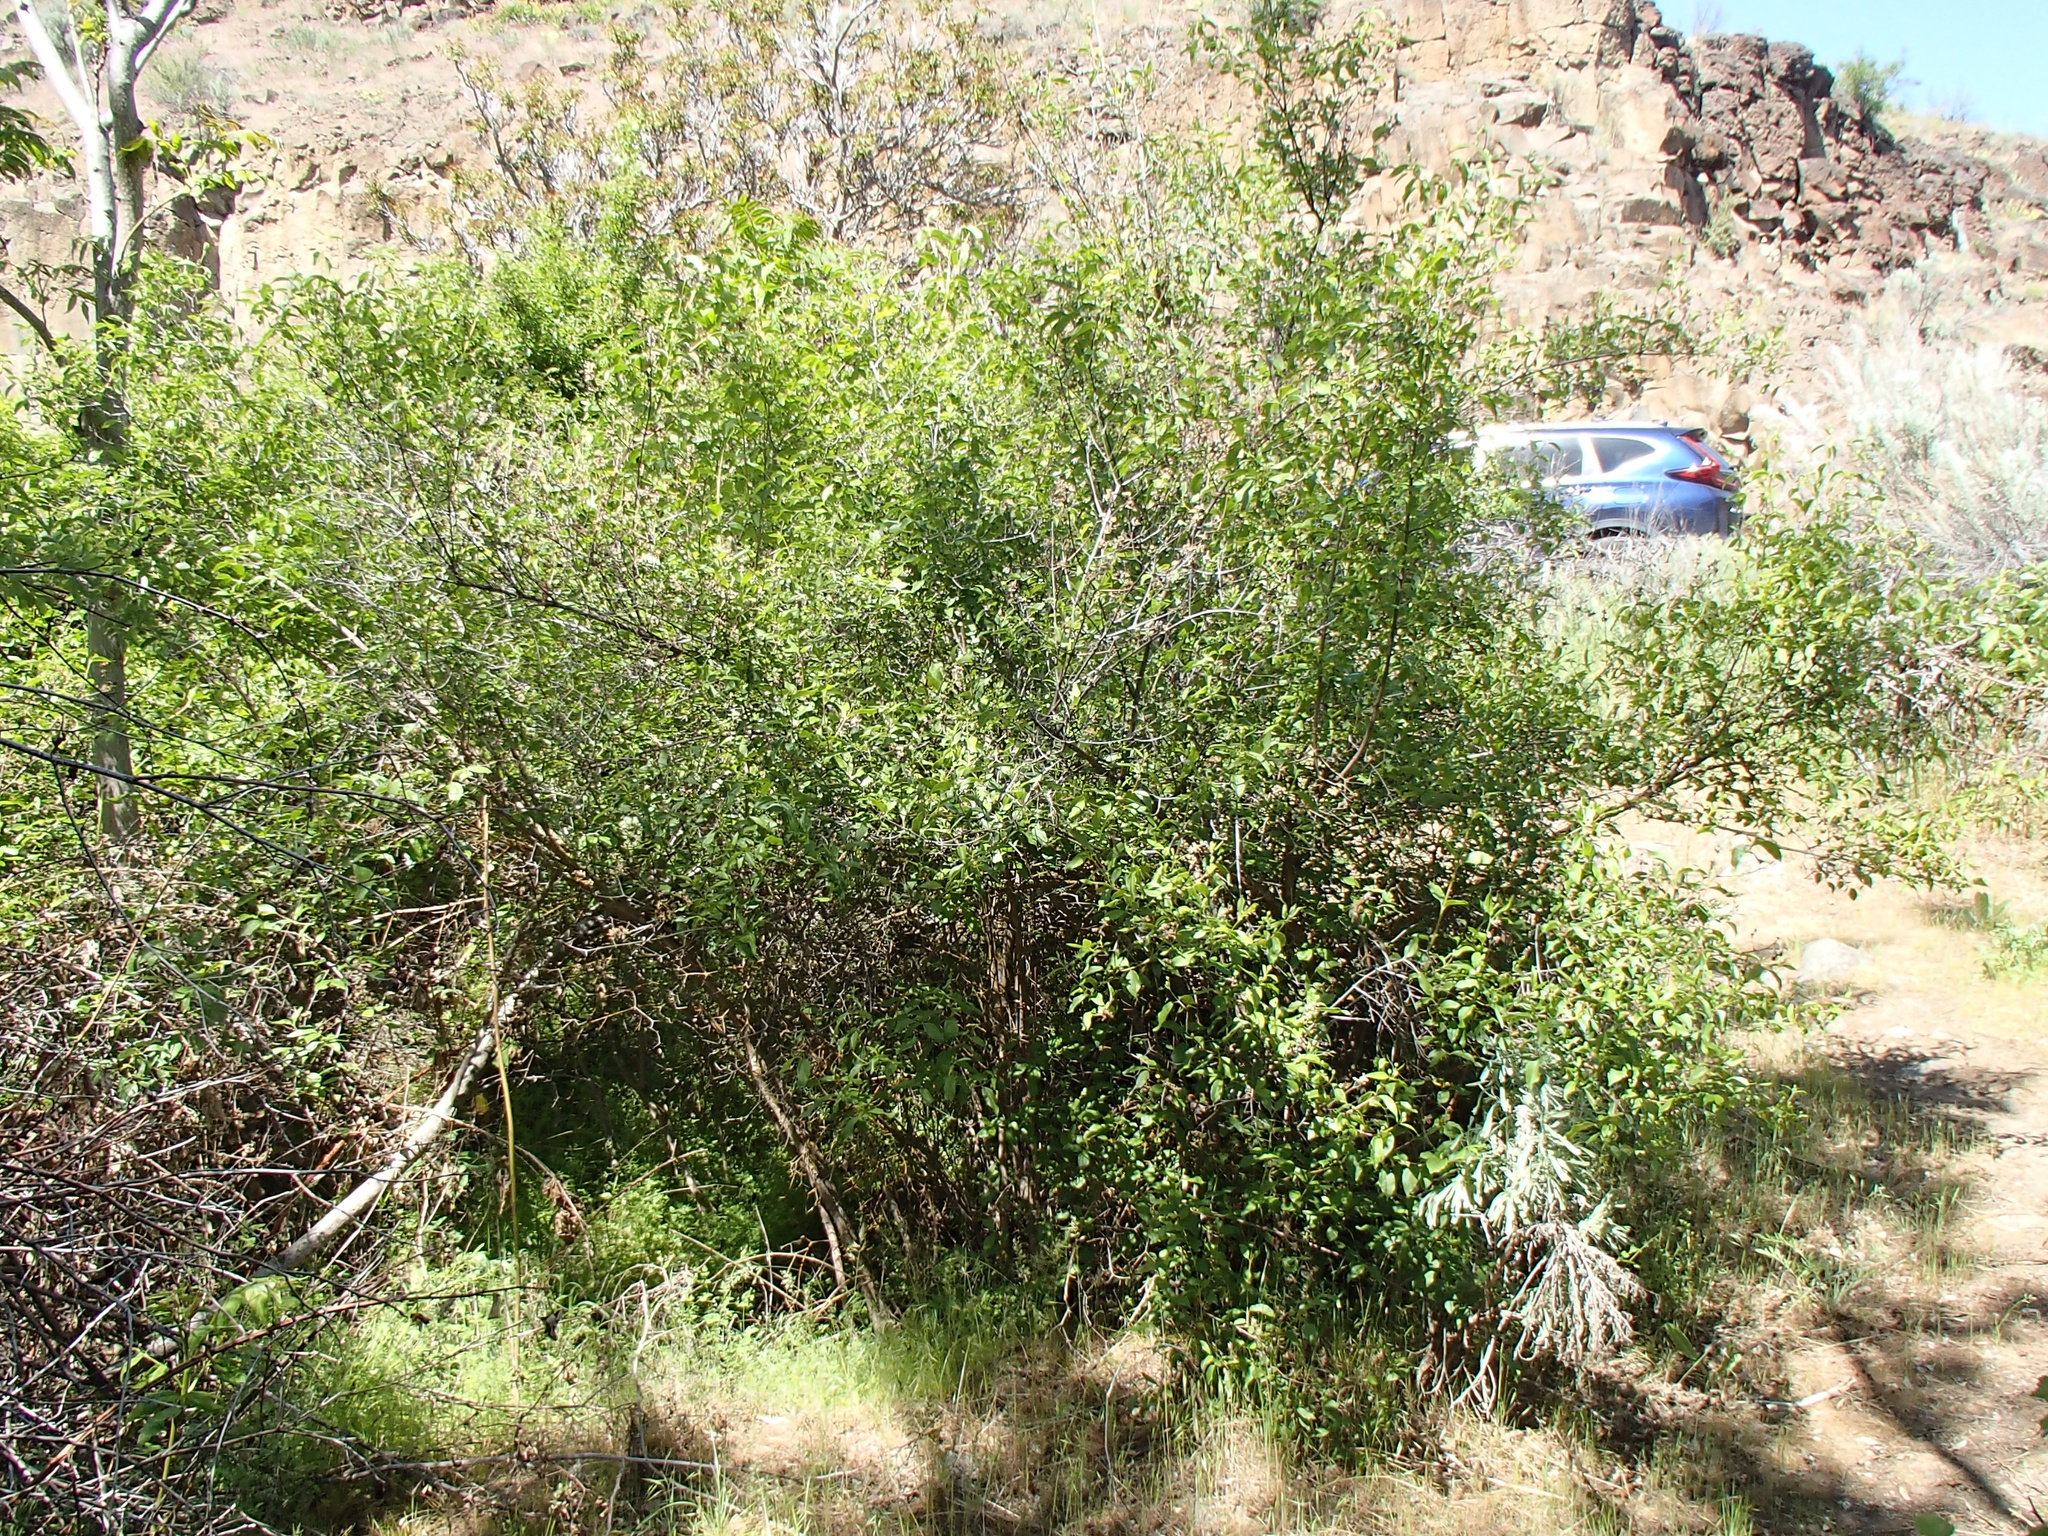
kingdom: Plantae
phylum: Tracheophyta
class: Magnoliopsida
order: Cornales
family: Hydrangeaceae
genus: Philadelphus
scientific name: Philadelphus lewisii
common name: Lewis's mock orange
